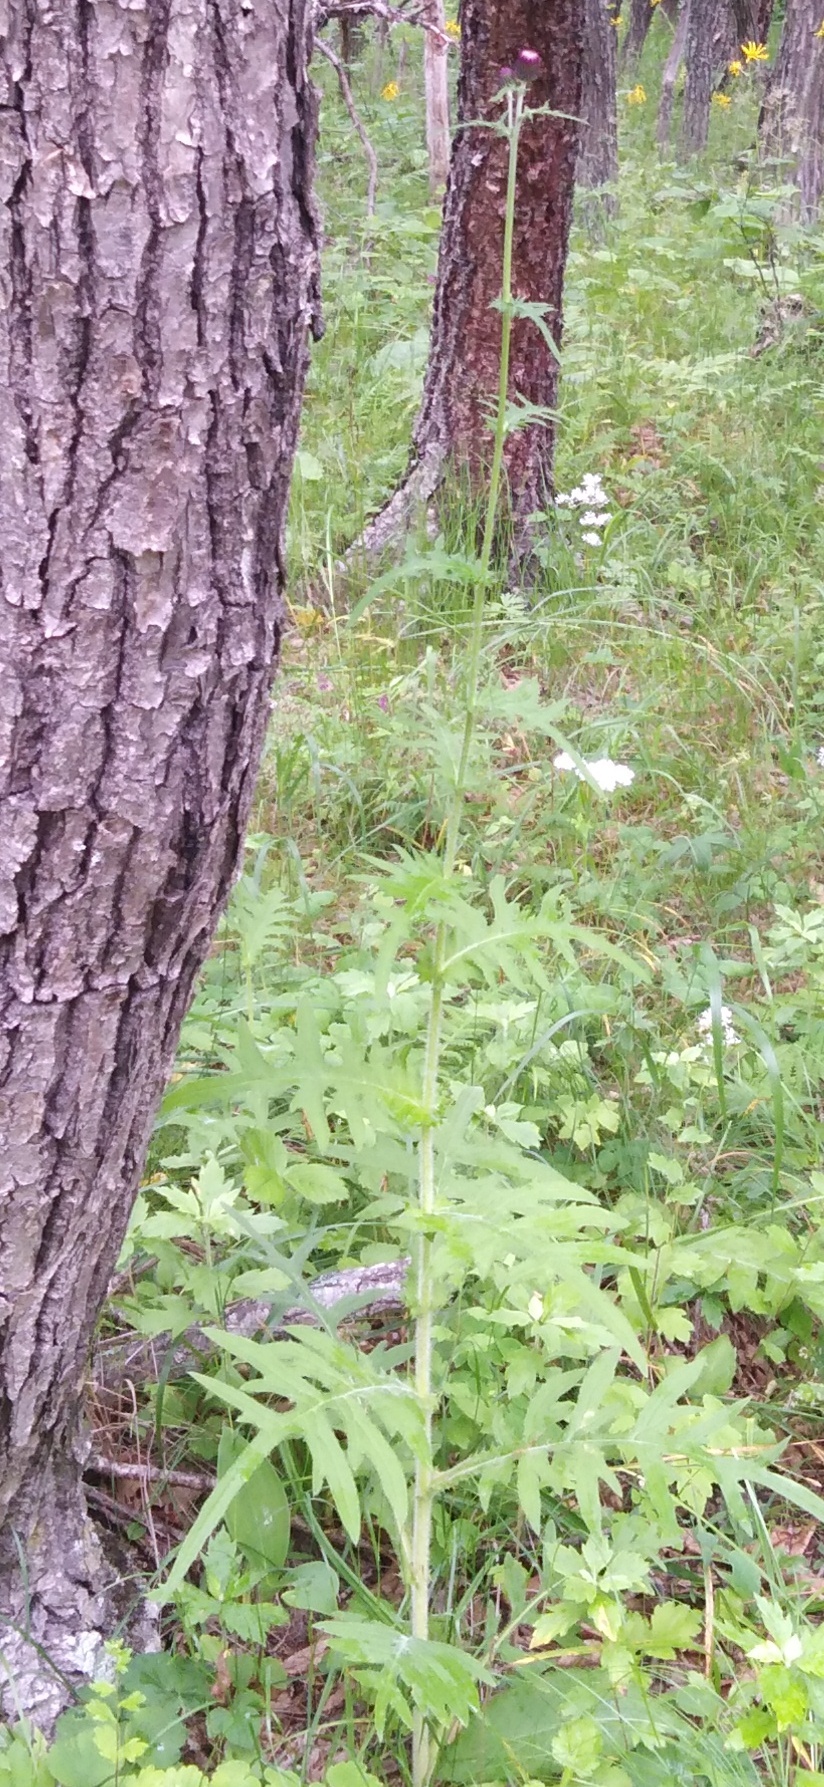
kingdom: Plantae
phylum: Tracheophyta
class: Magnoliopsida
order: Asterales
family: Asteraceae
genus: Cirsium
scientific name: Cirsium schantarense
